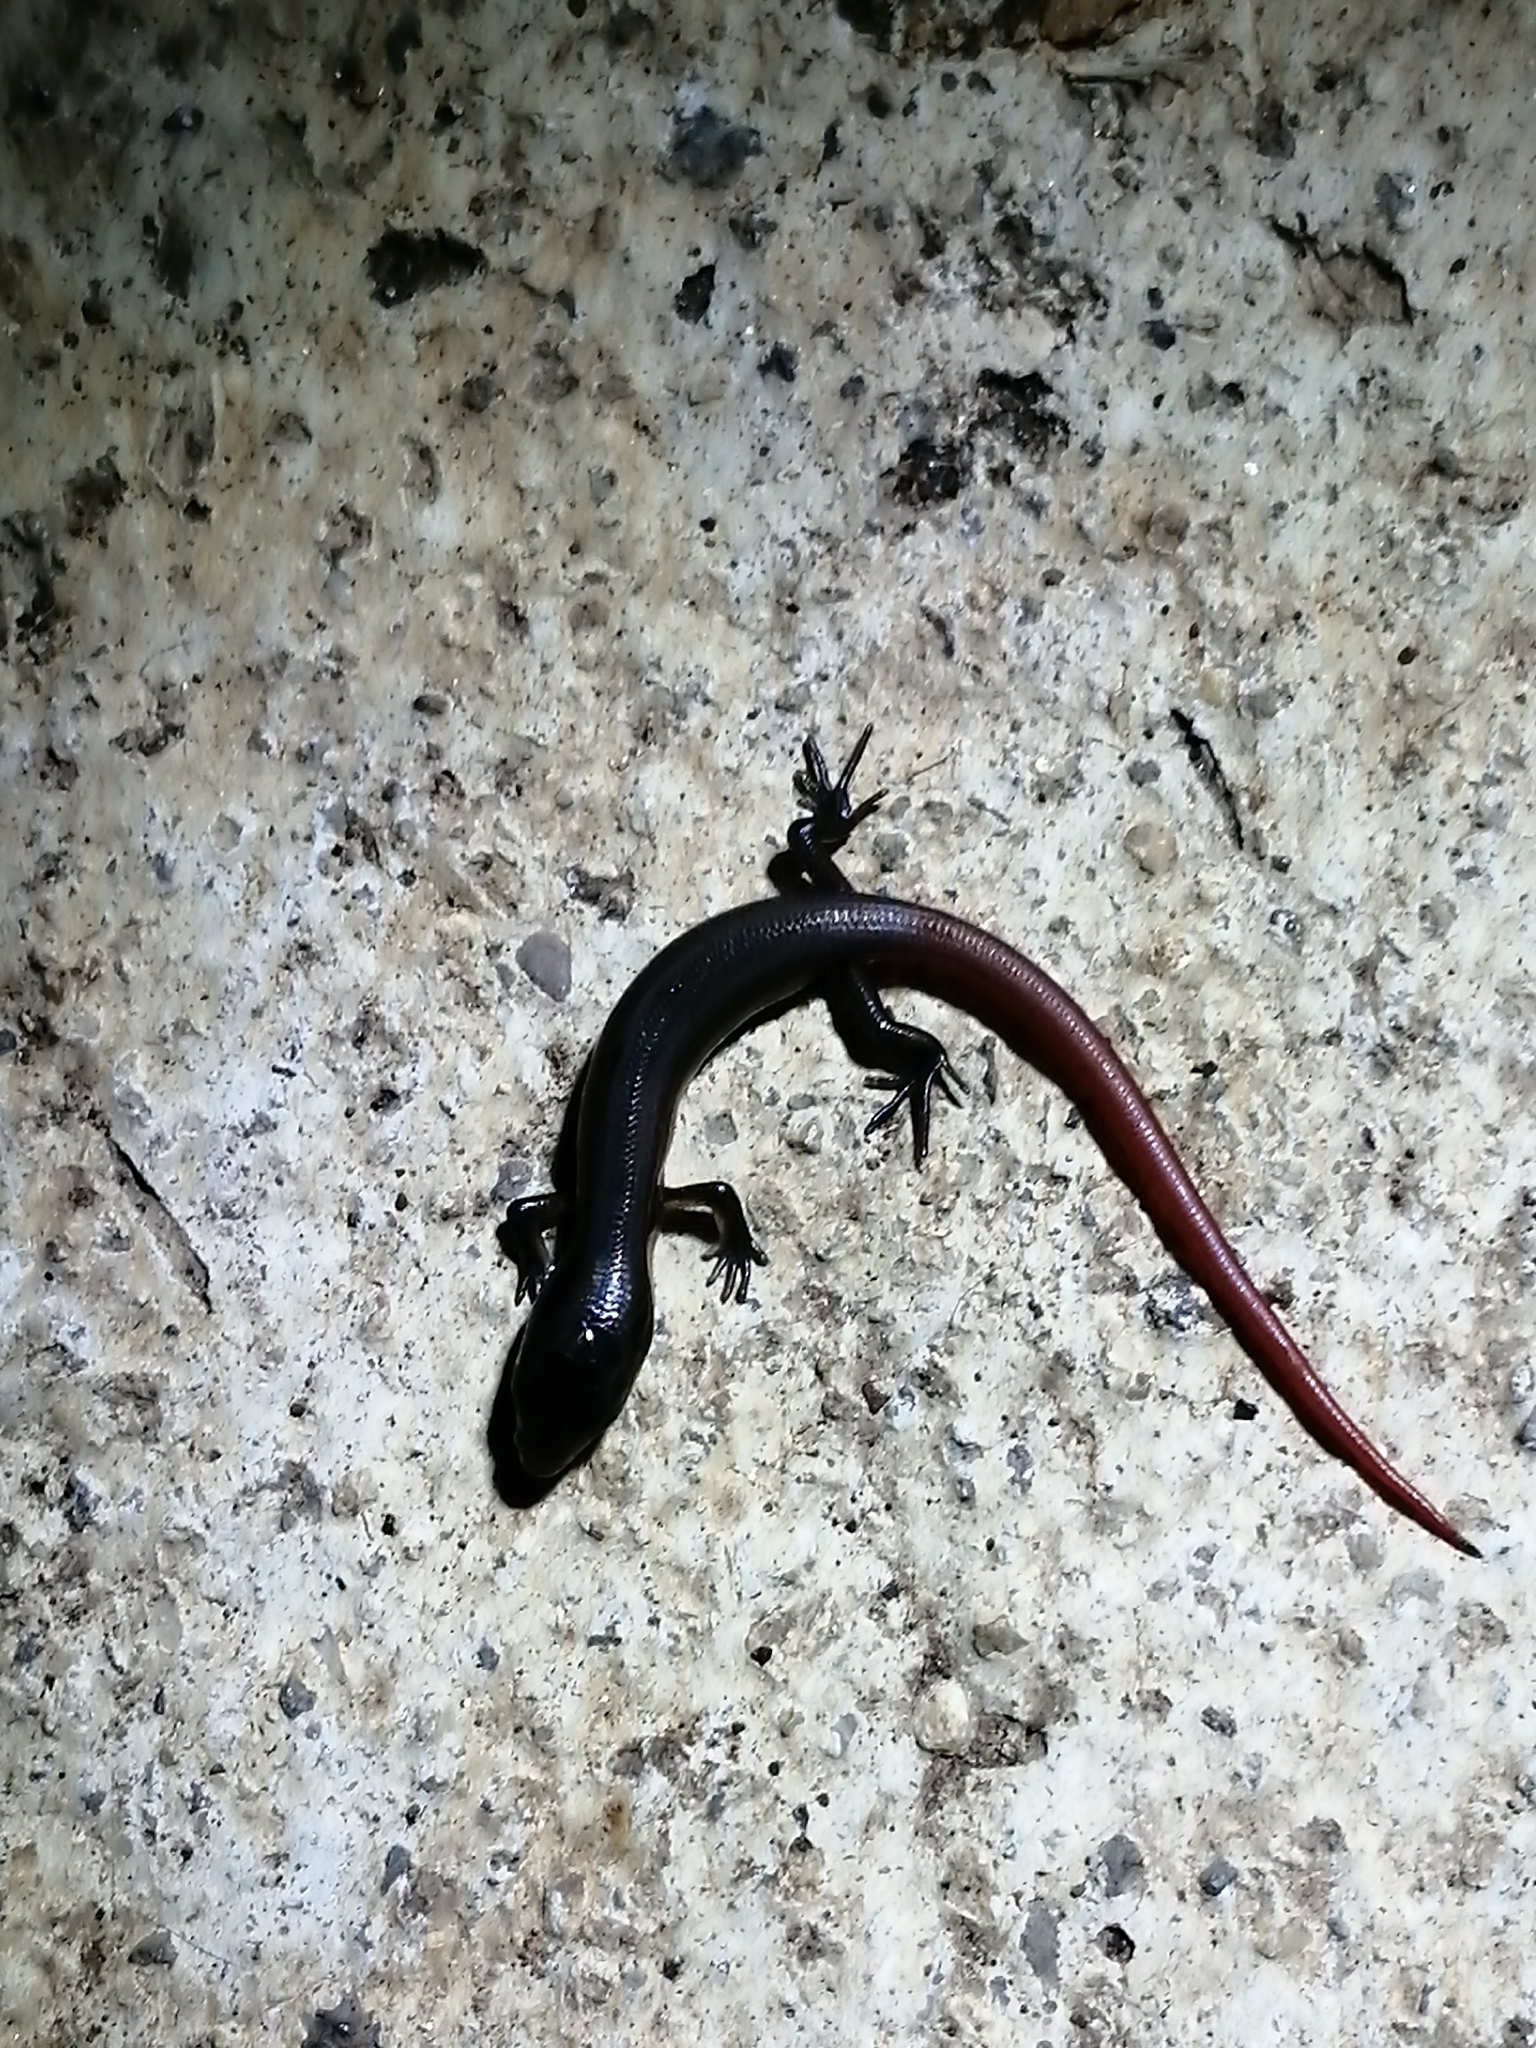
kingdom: Animalia
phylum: Chordata
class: Squamata
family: Scincidae
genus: Scincella
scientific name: Scincella assata
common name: Ground skink
